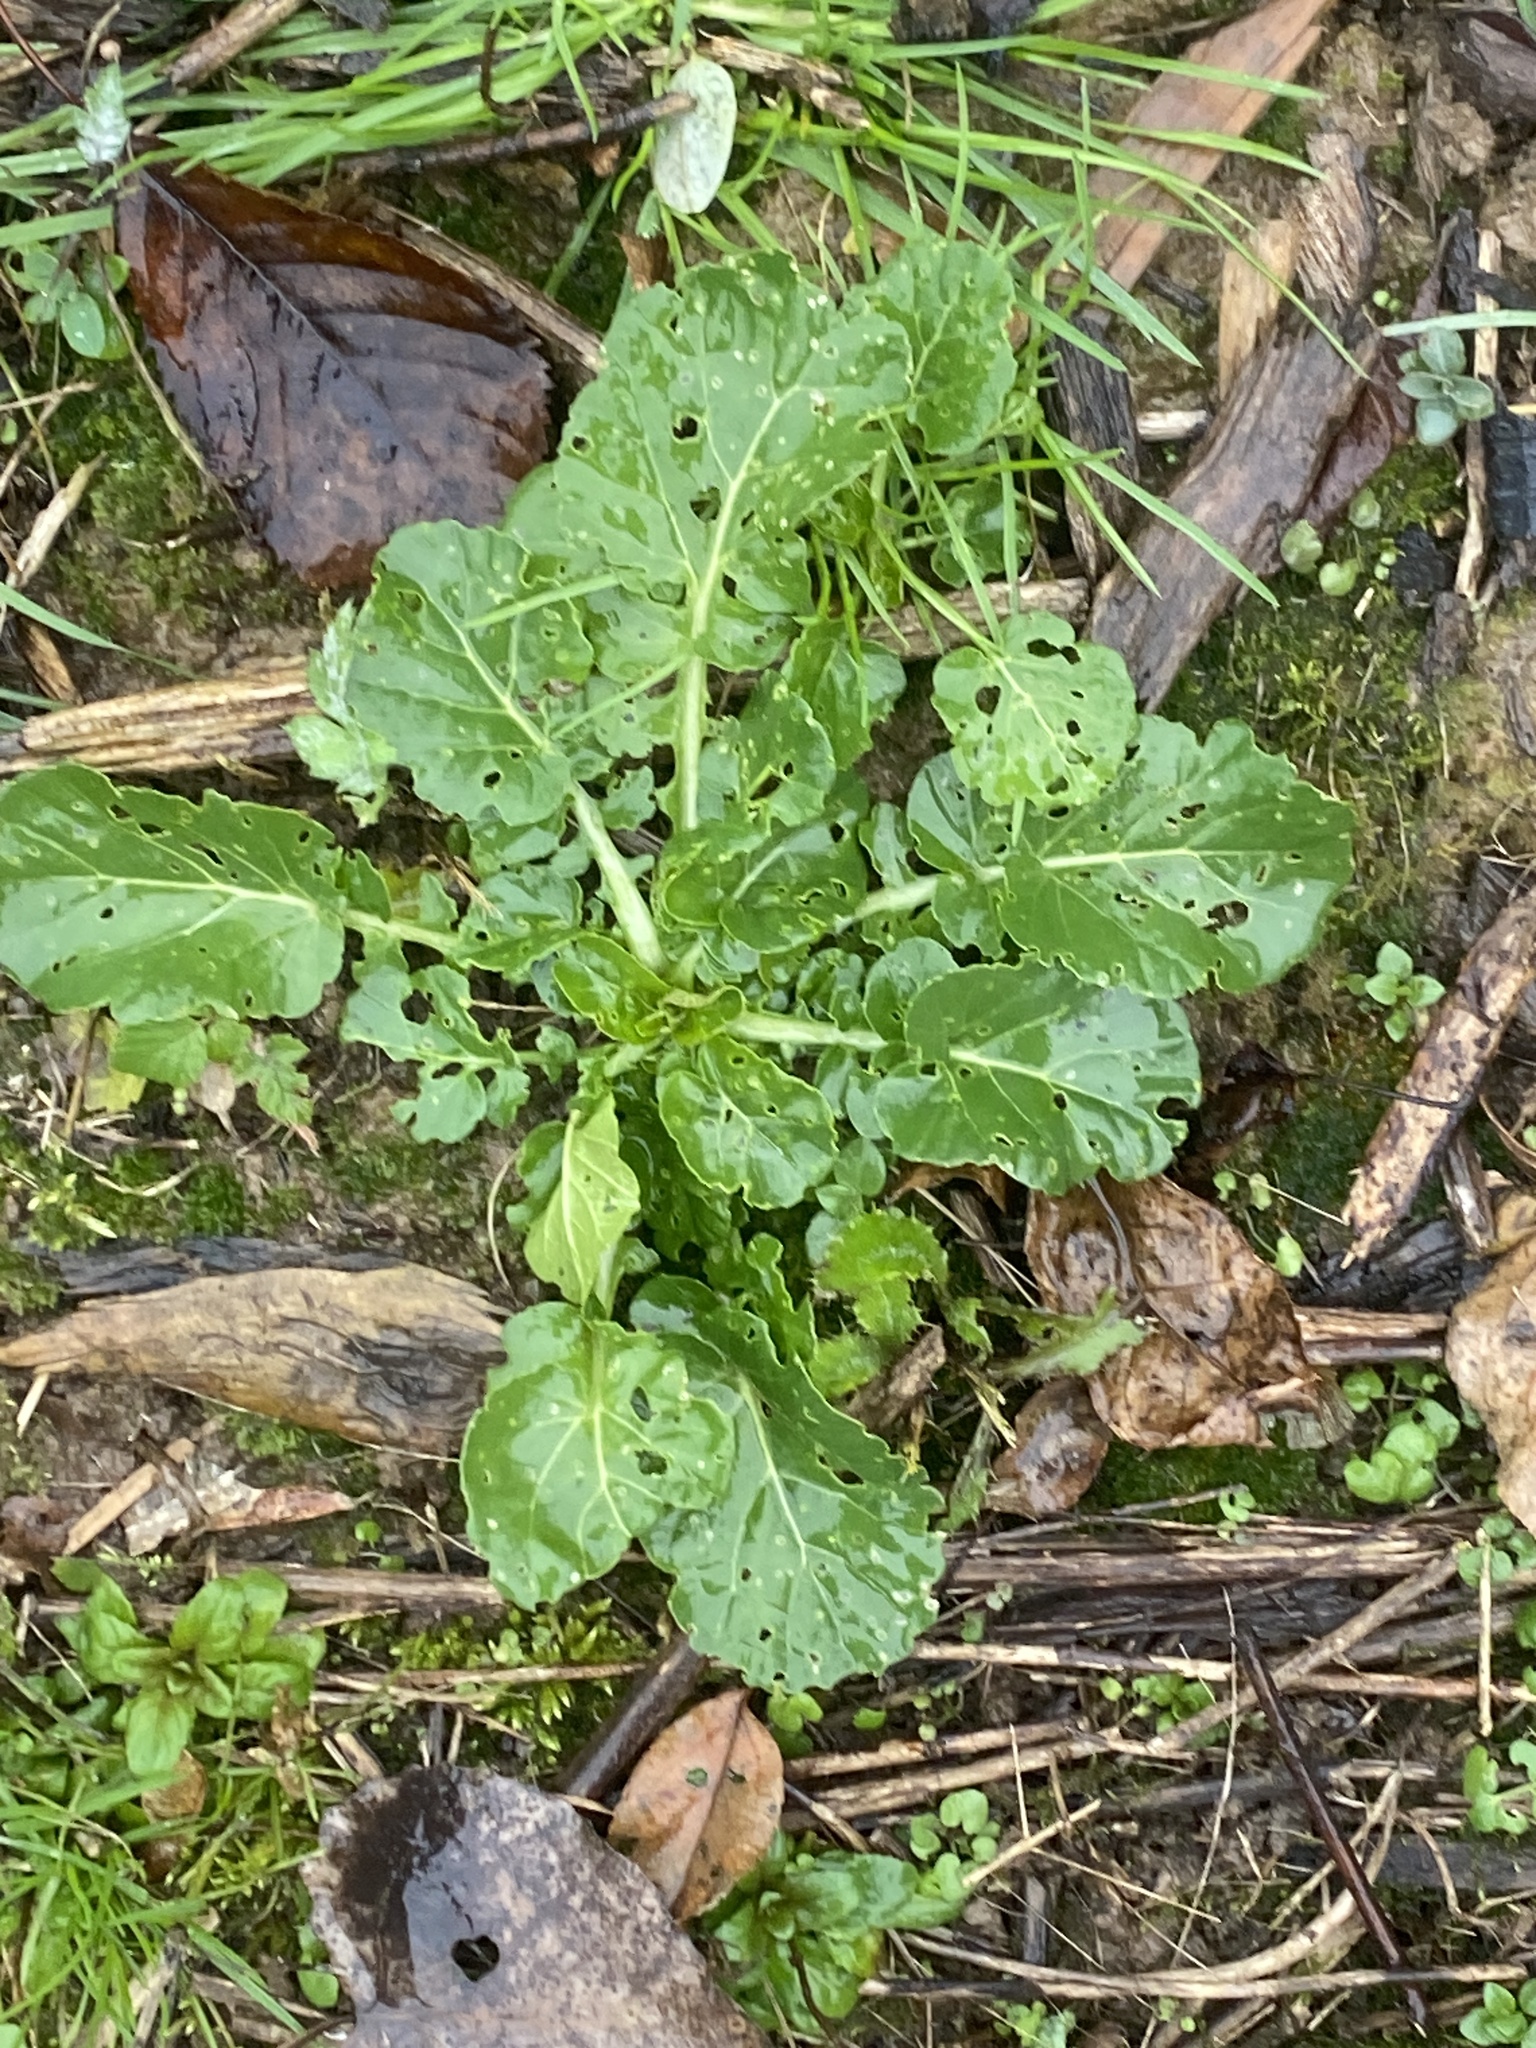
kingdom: Plantae
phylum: Tracheophyta
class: Magnoliopsida
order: Brassicales
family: Brassicaceae
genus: Barbarea
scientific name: Barbarea vulgaris
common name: Cressy-greens
